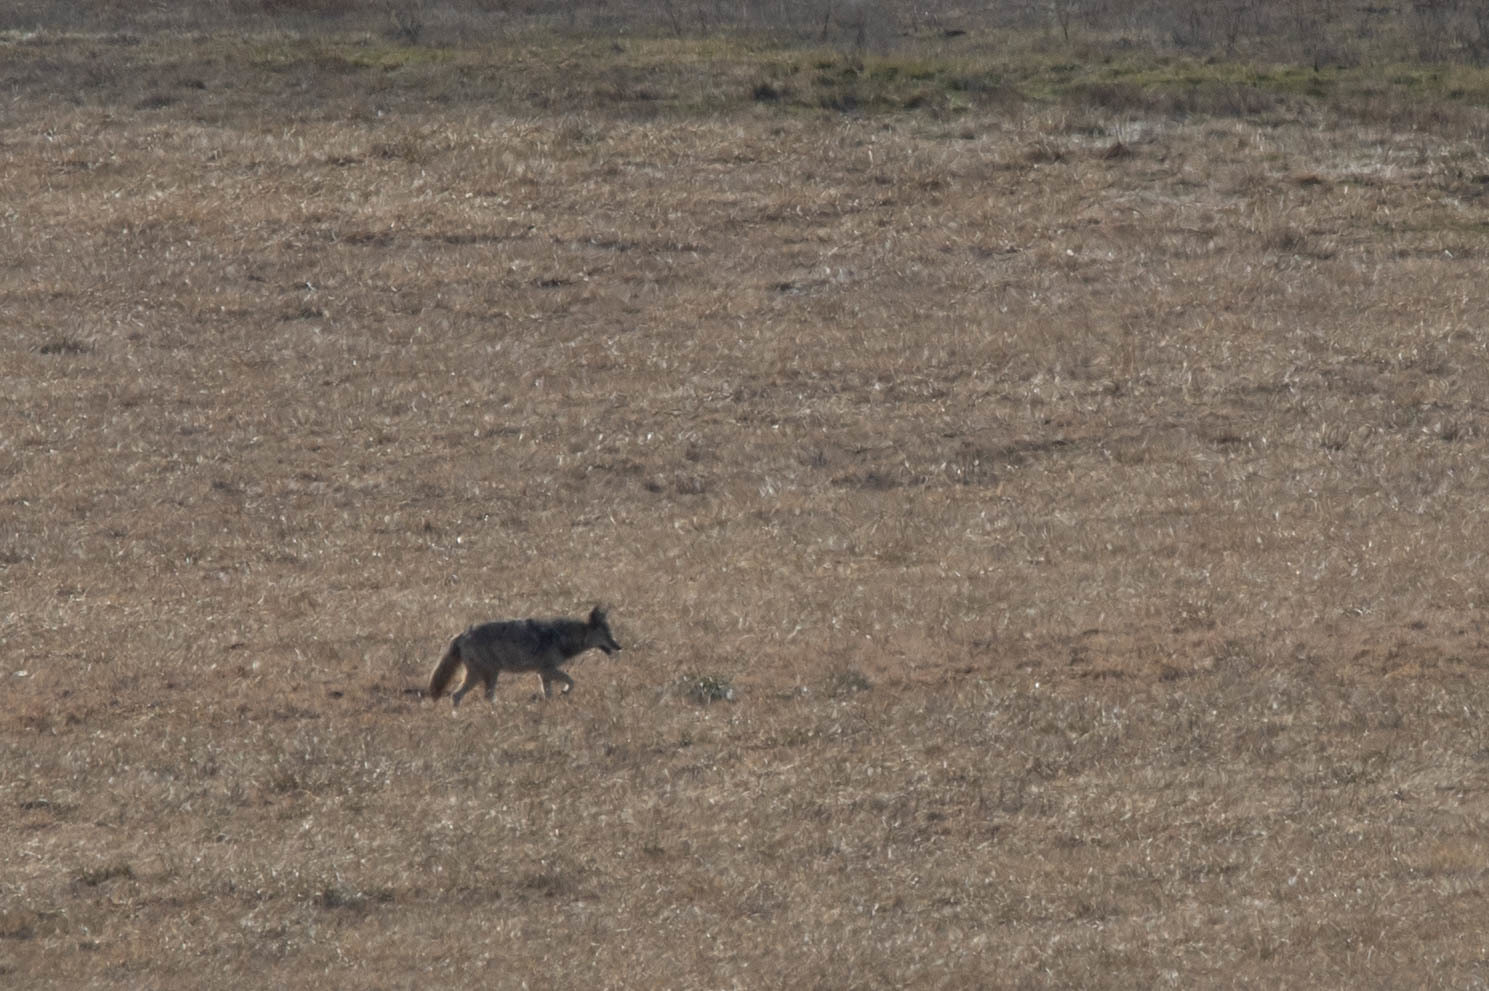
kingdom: Animalia
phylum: Chordata
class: Mammalia
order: Carnivora
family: Canidae
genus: Canis
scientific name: Canis latrans
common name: Coyote
